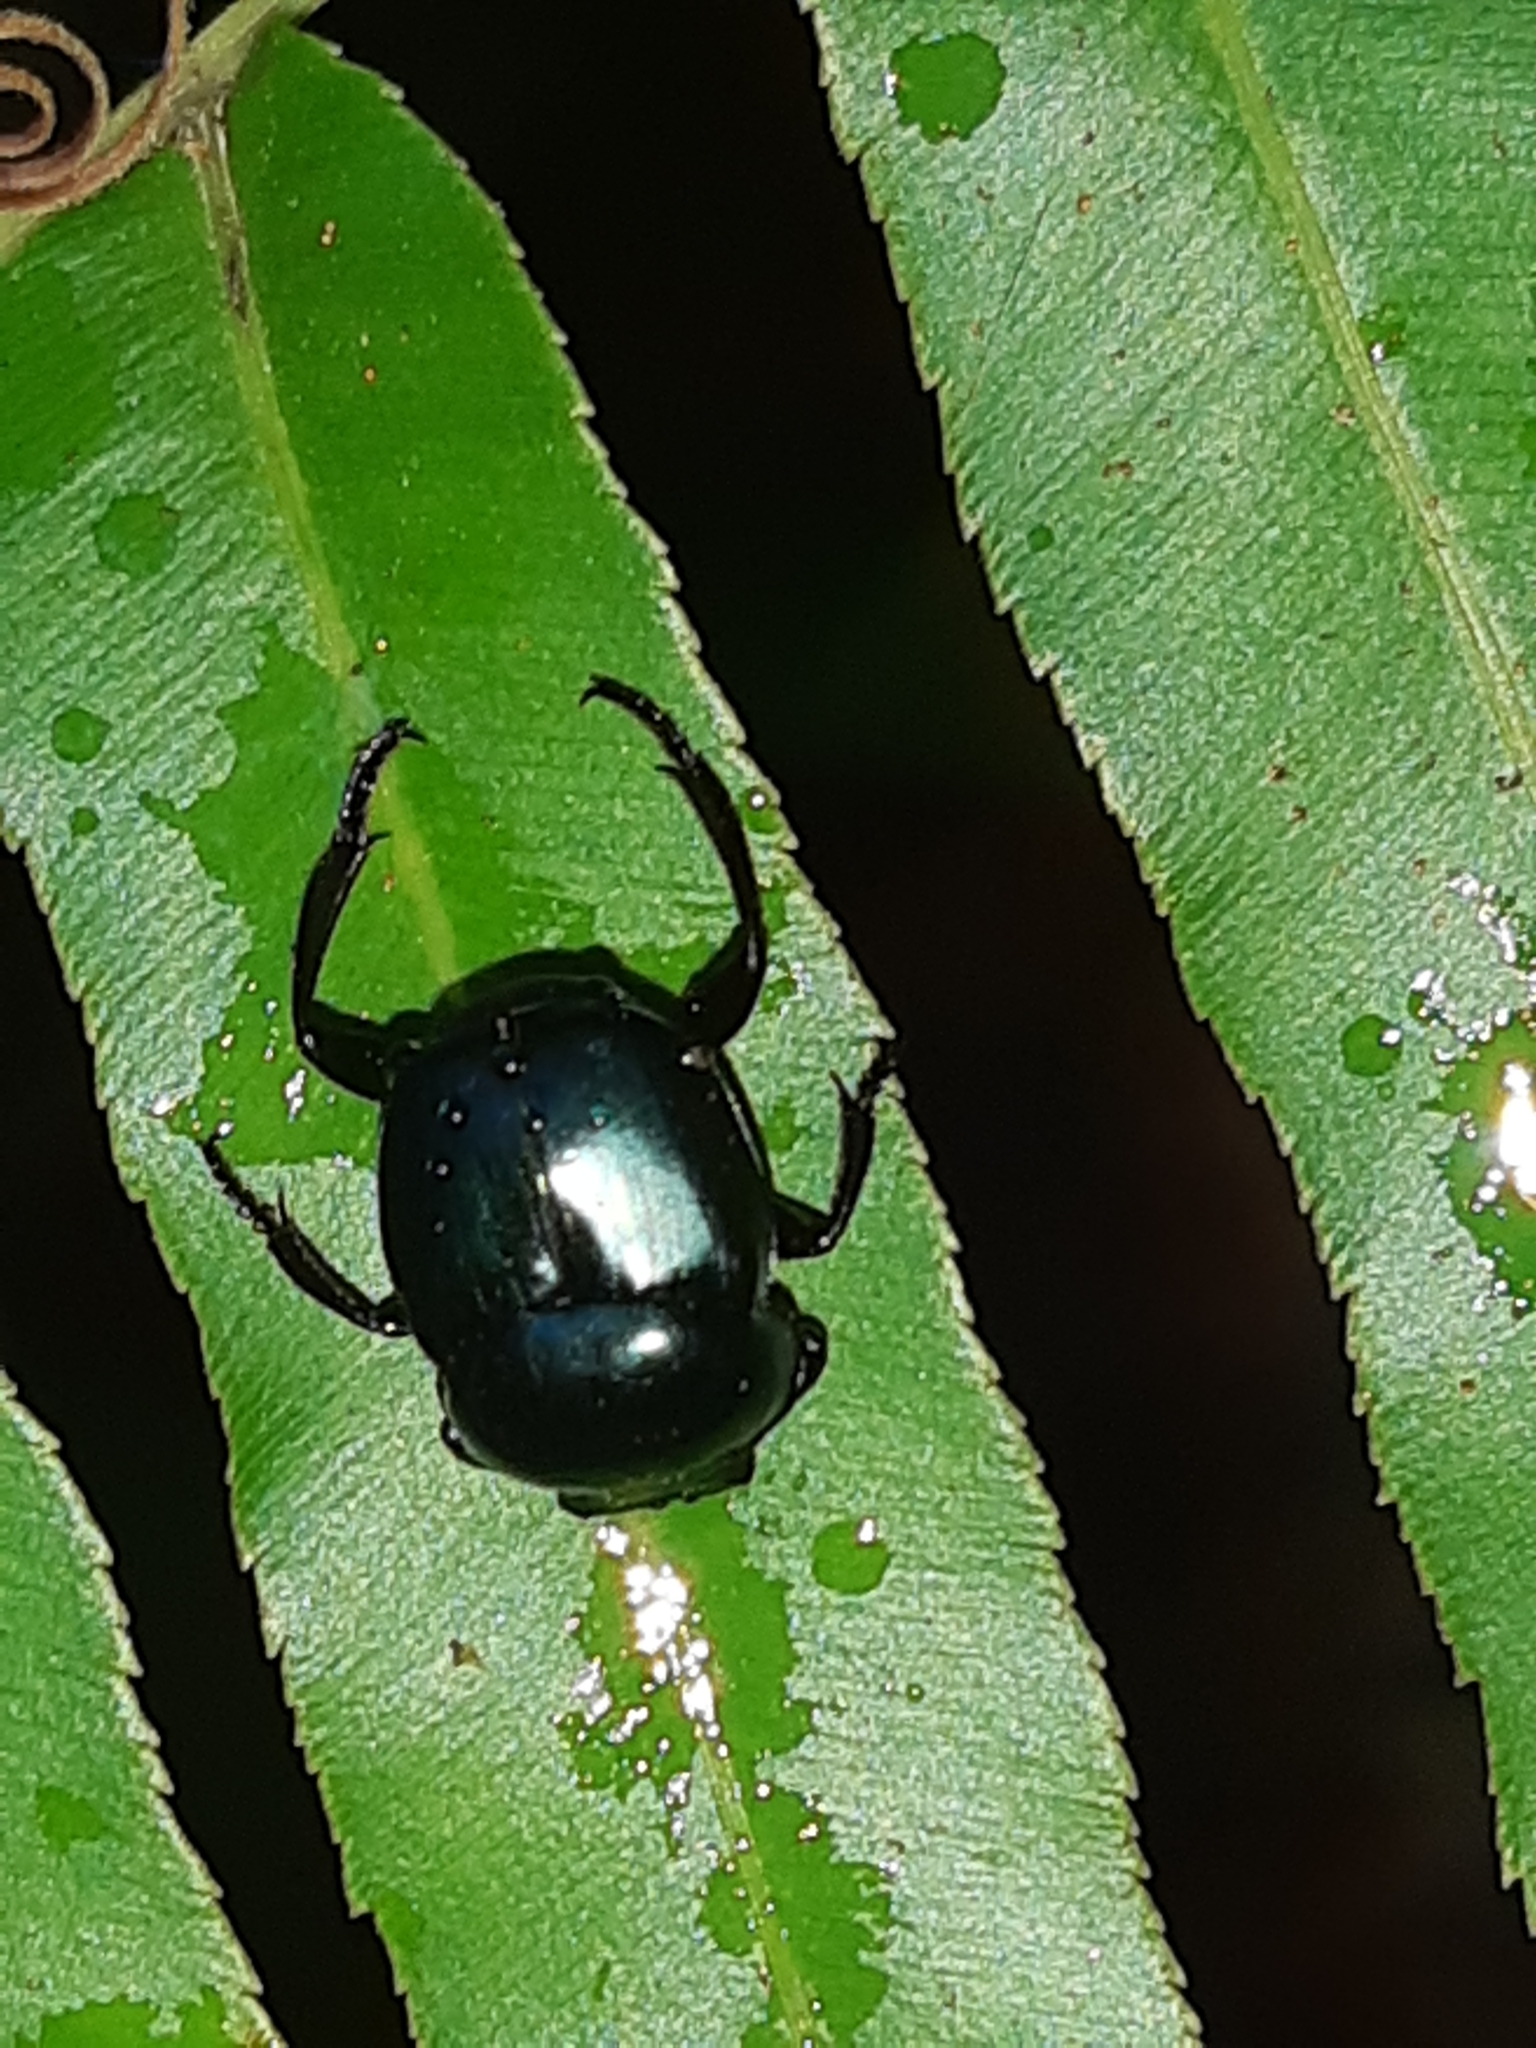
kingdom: Animalia
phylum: Arthropoda
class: Insecta
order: Coleoptera
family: Scarabaeidae
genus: Canthon
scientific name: Canthon rutilans
